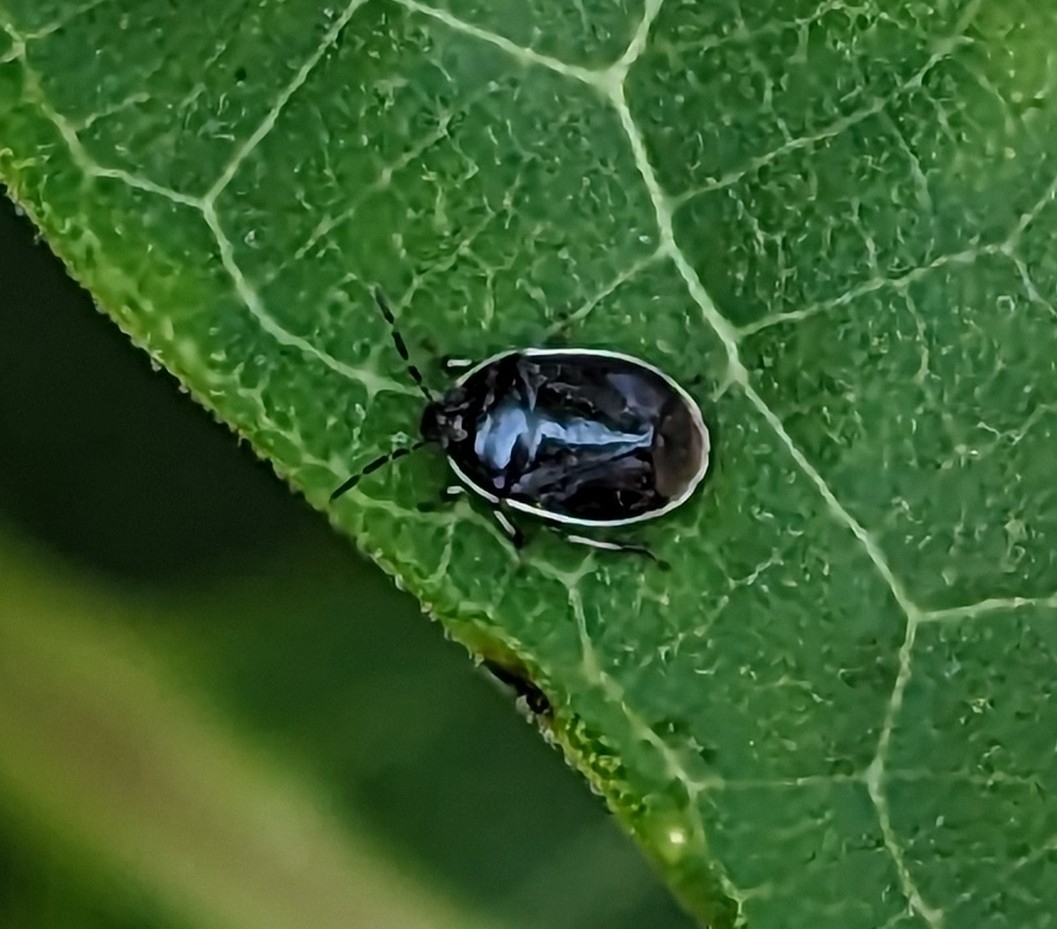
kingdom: Animalia
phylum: Arthropoda
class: Insecta
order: Hemiptera
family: Cydnidae
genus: Sehirus
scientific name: Sehirus cinctus
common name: White-margined burrower bug
